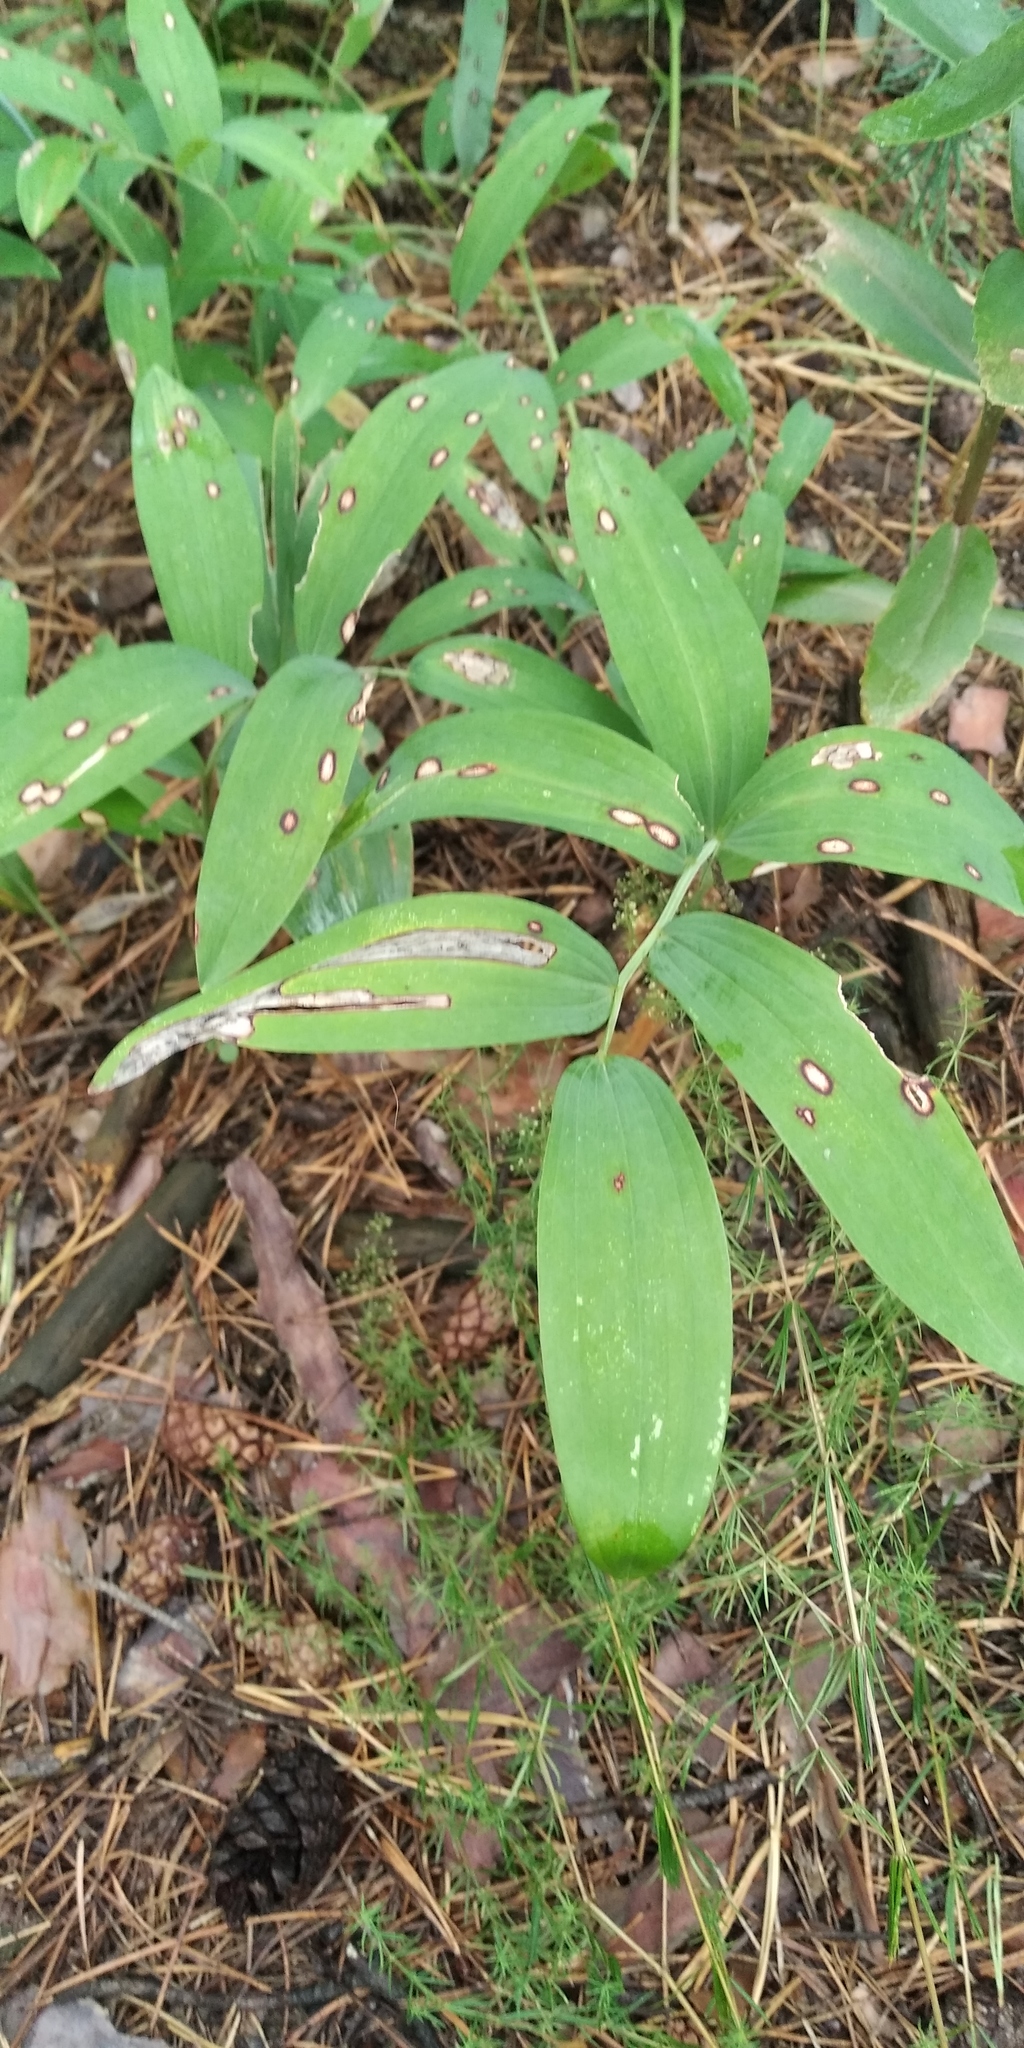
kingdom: Plantae
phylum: Tracheophyta
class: Liliopsida
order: Asparagales
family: Asparagaceae
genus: Polygonatum
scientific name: Polygonatum odoratum
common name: Angular solomon's-seal
